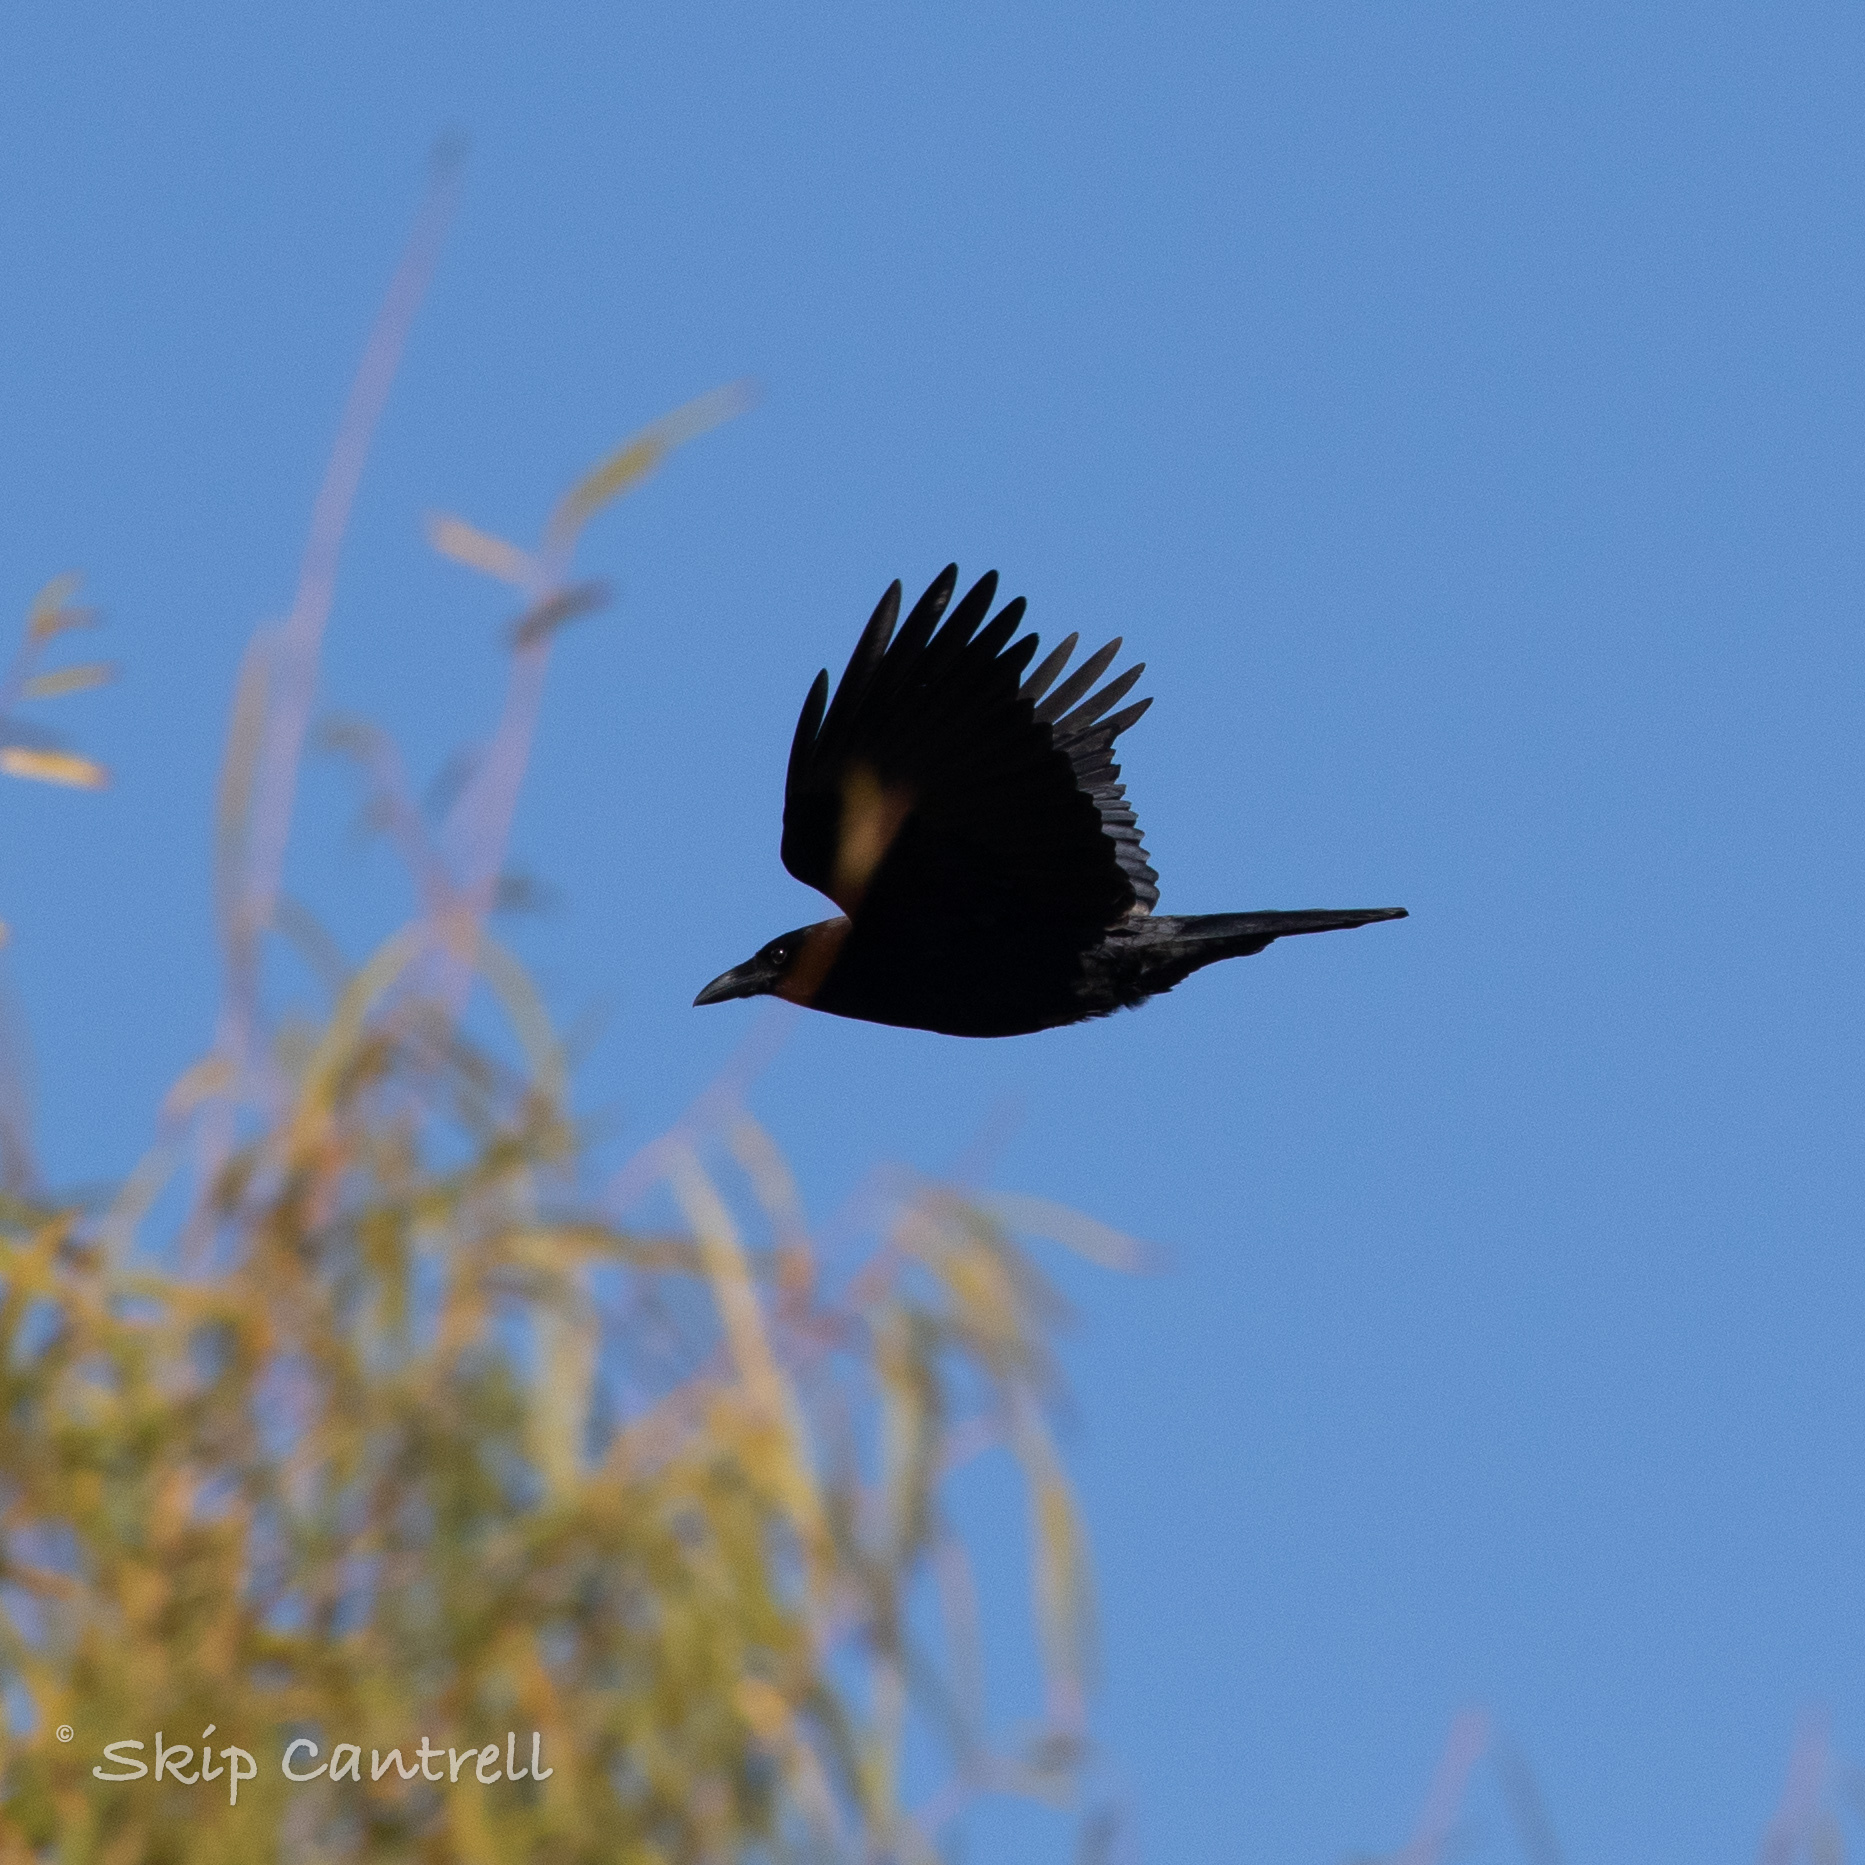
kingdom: Animalia
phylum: Chordata
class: Aves
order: Passeriformes
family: Corvidae
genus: Corvus
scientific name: Corvus brachyrhynchos
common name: American crow
